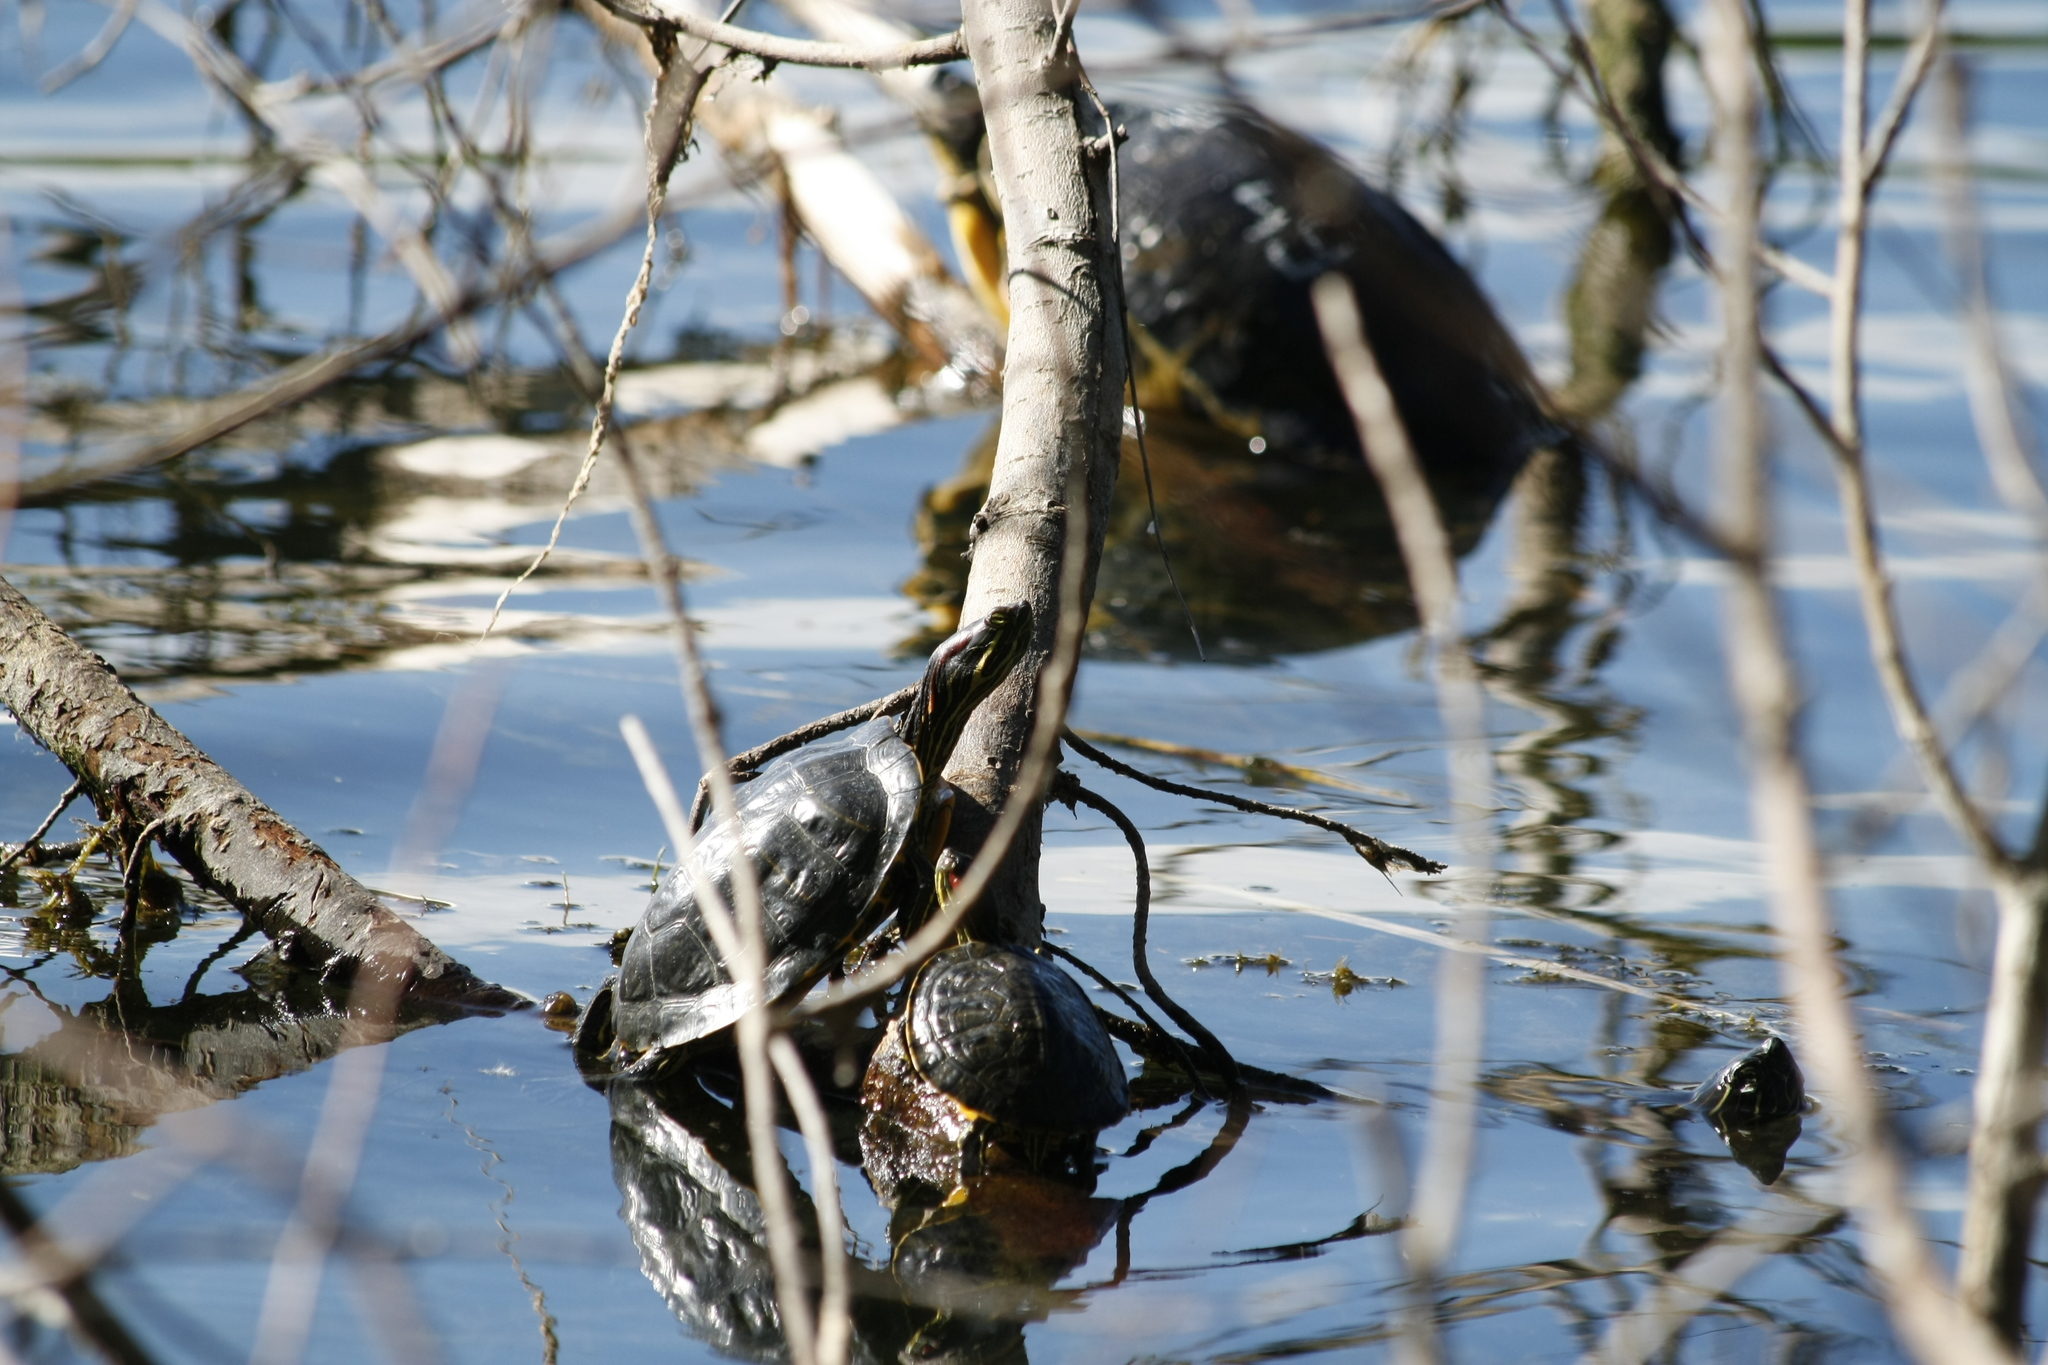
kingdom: Animalia
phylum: Chordata
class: Testudines
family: Emydidae
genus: Trachemys
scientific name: Trachemys scripta
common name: Slider
